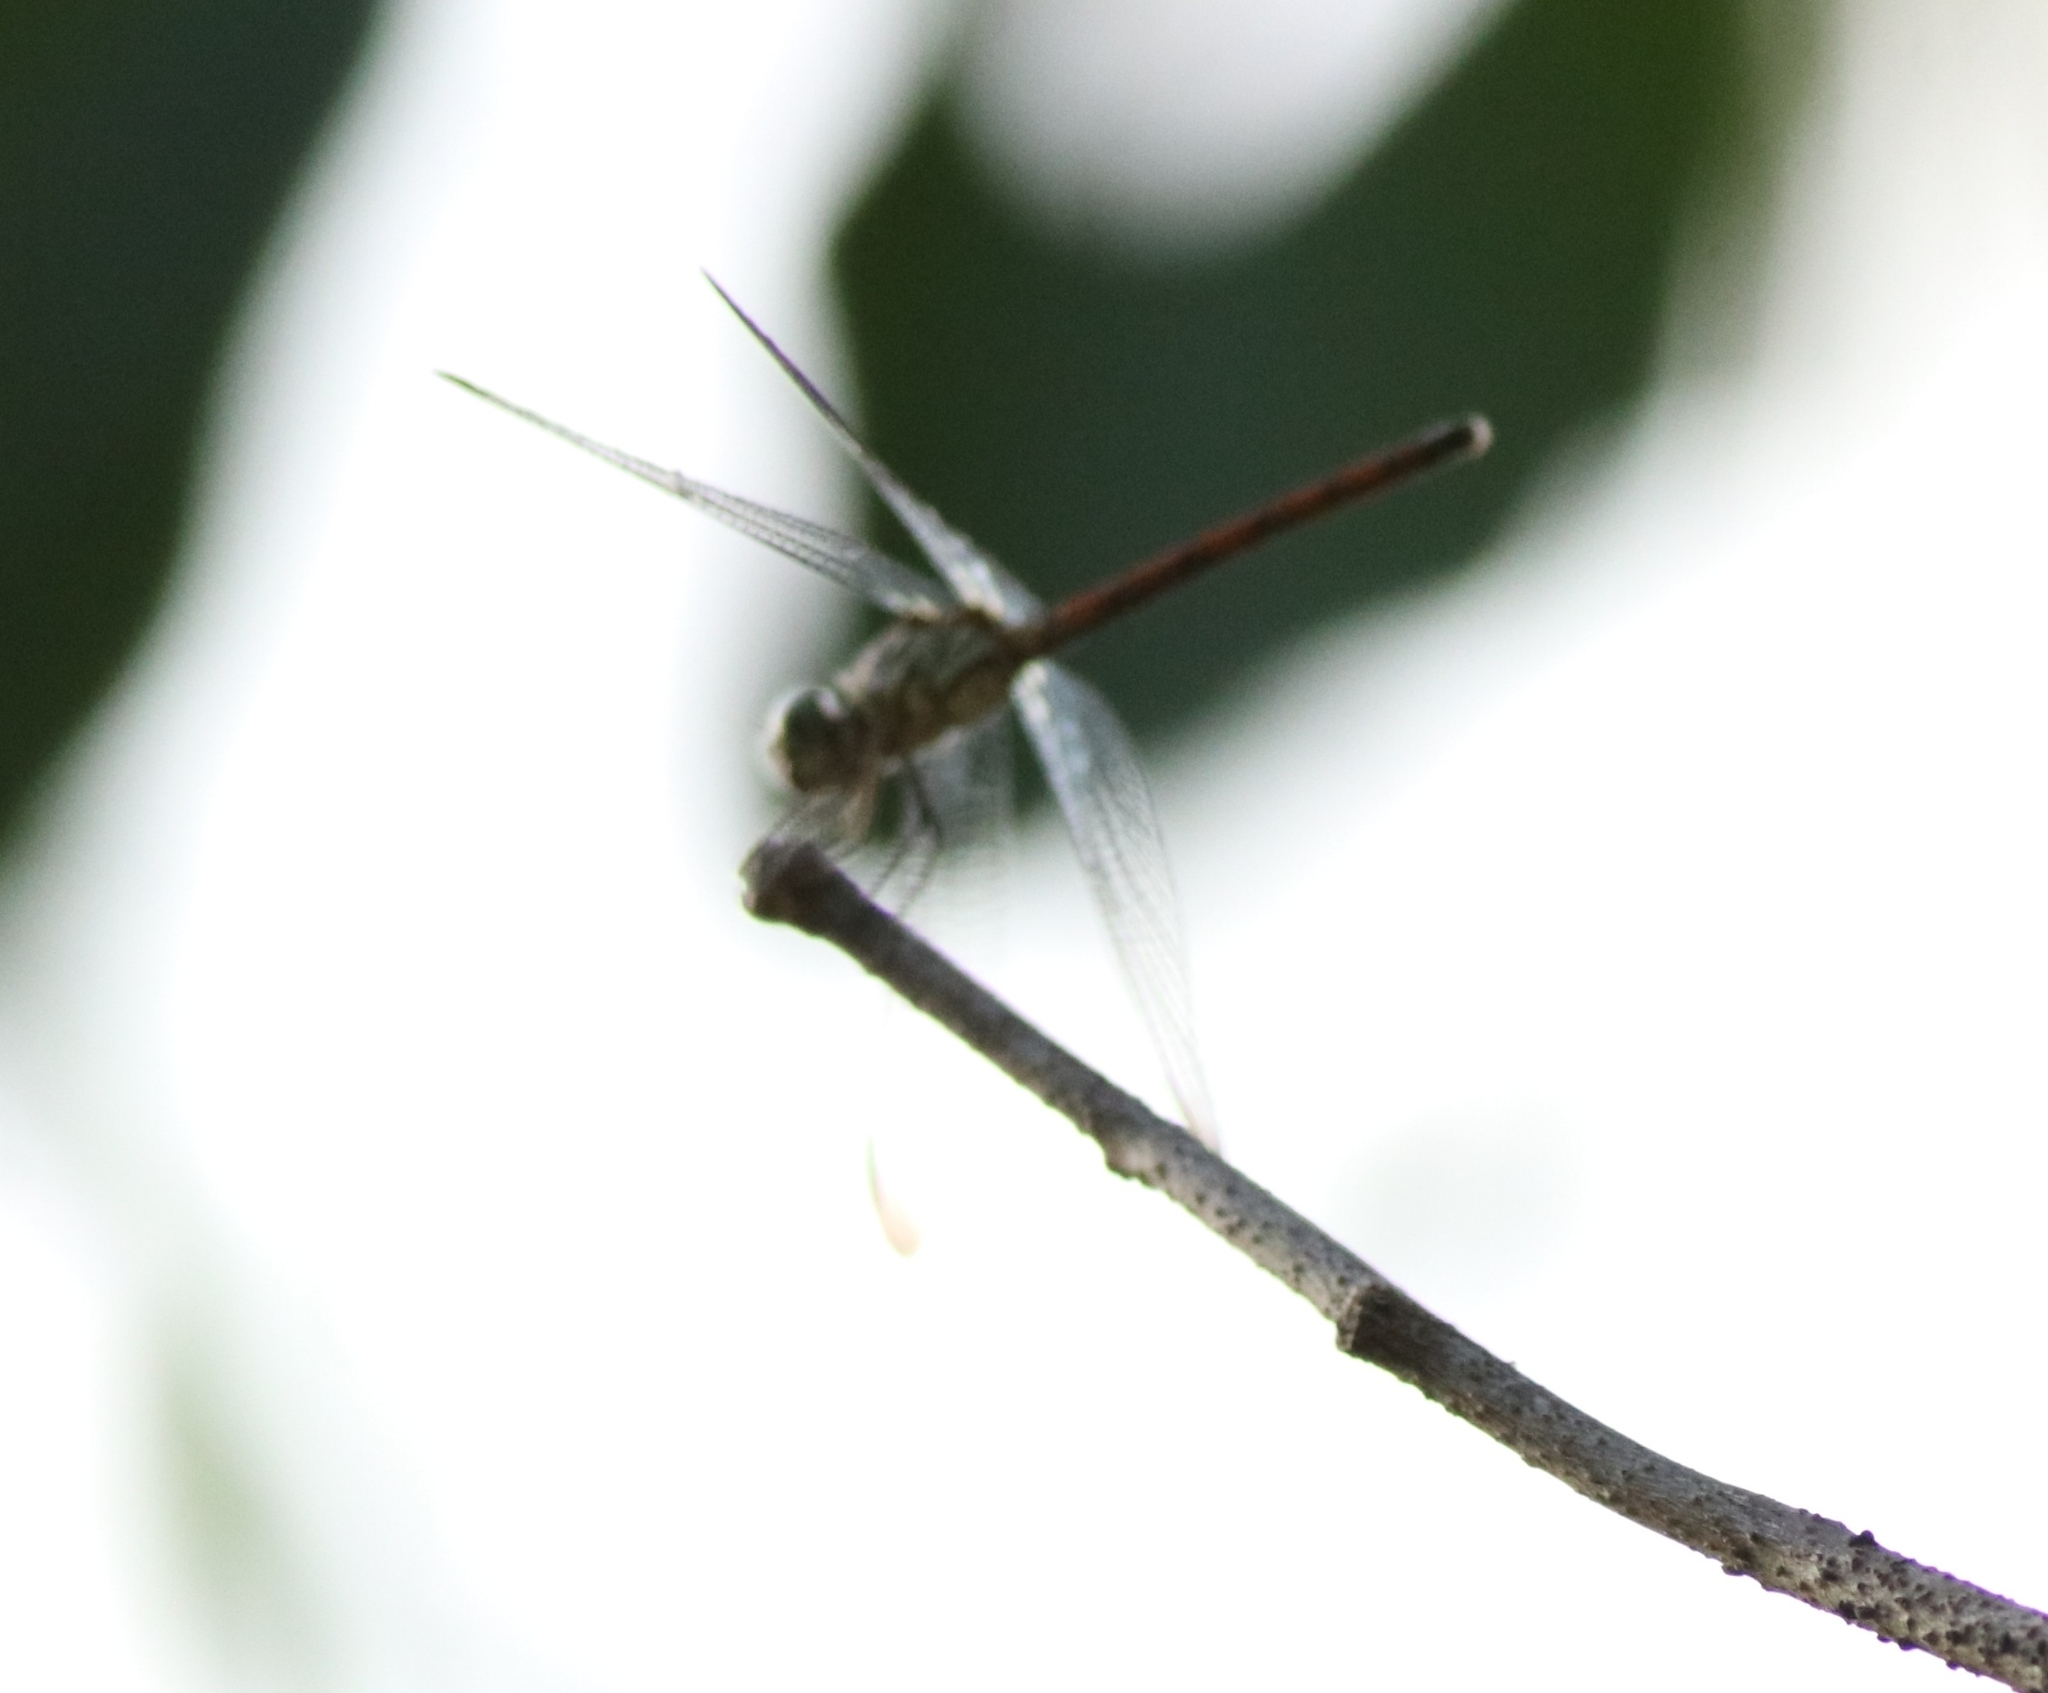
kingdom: Animalia
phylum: Arthropoda
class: Insecta
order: Odonata
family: Libellulidae
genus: Lathrecista
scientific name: Lathrecista asiatica
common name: Scarlet grenadier
